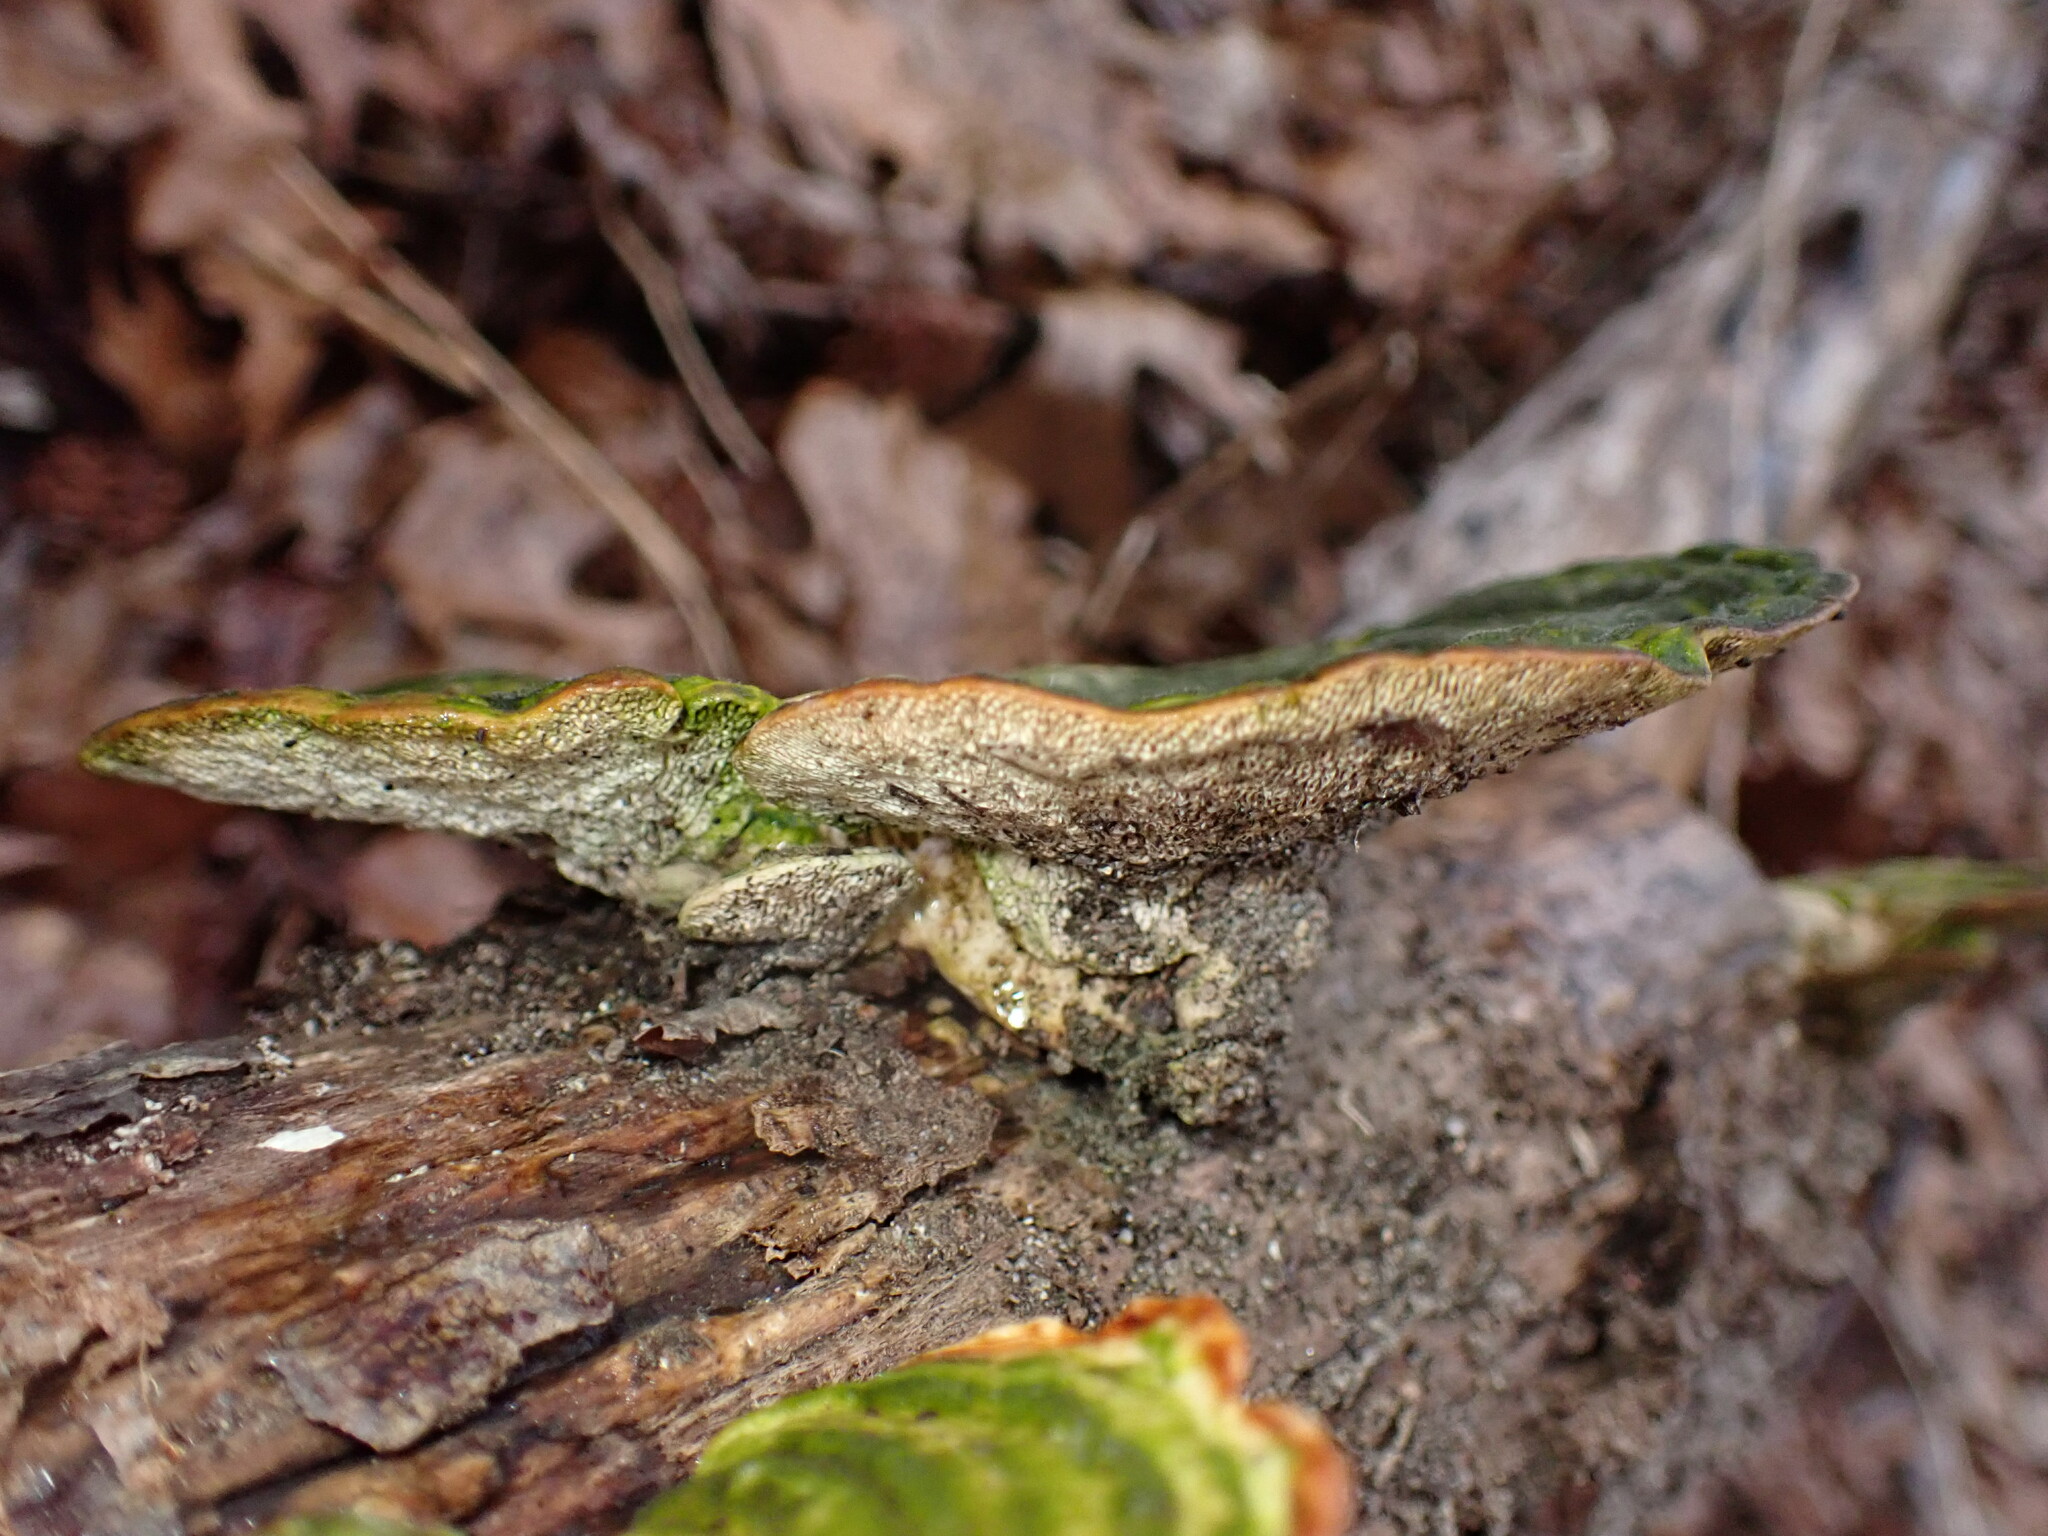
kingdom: Fungi
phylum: Basidiomycota
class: Agaricomycetes
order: Polyporales
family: Polyporaceae
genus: Trametes
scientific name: Trametes gibbosa
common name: Lumpy bracket
